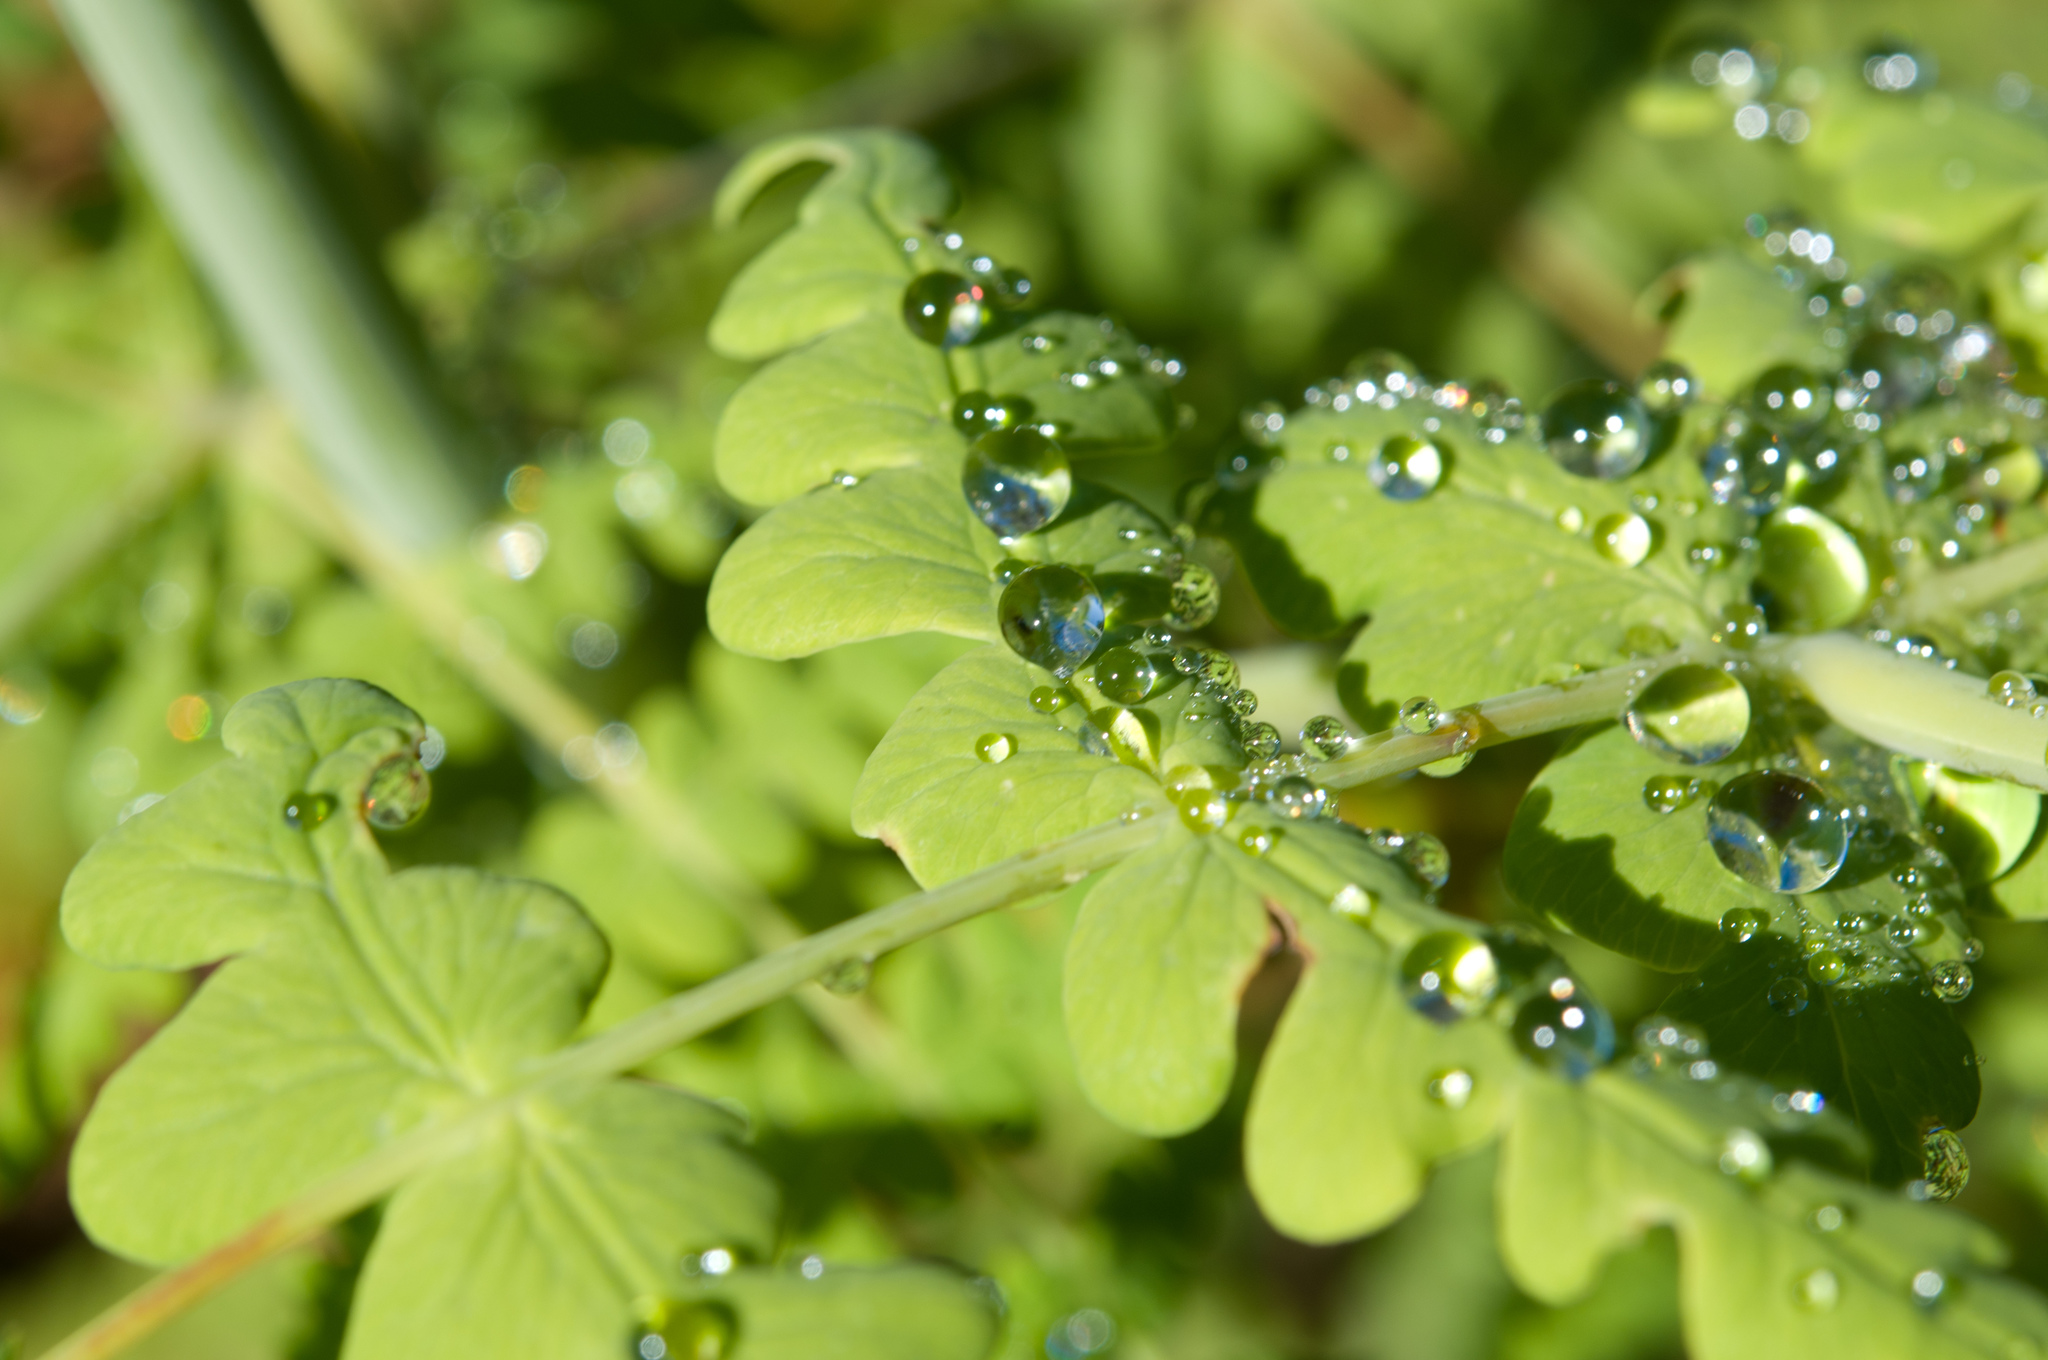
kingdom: Plantae
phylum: Tracheophyta
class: Polypodiopsida
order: Polypodiales
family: Dennstaedtiaceae
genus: Histiopteris
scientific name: Histiopteris incisa
